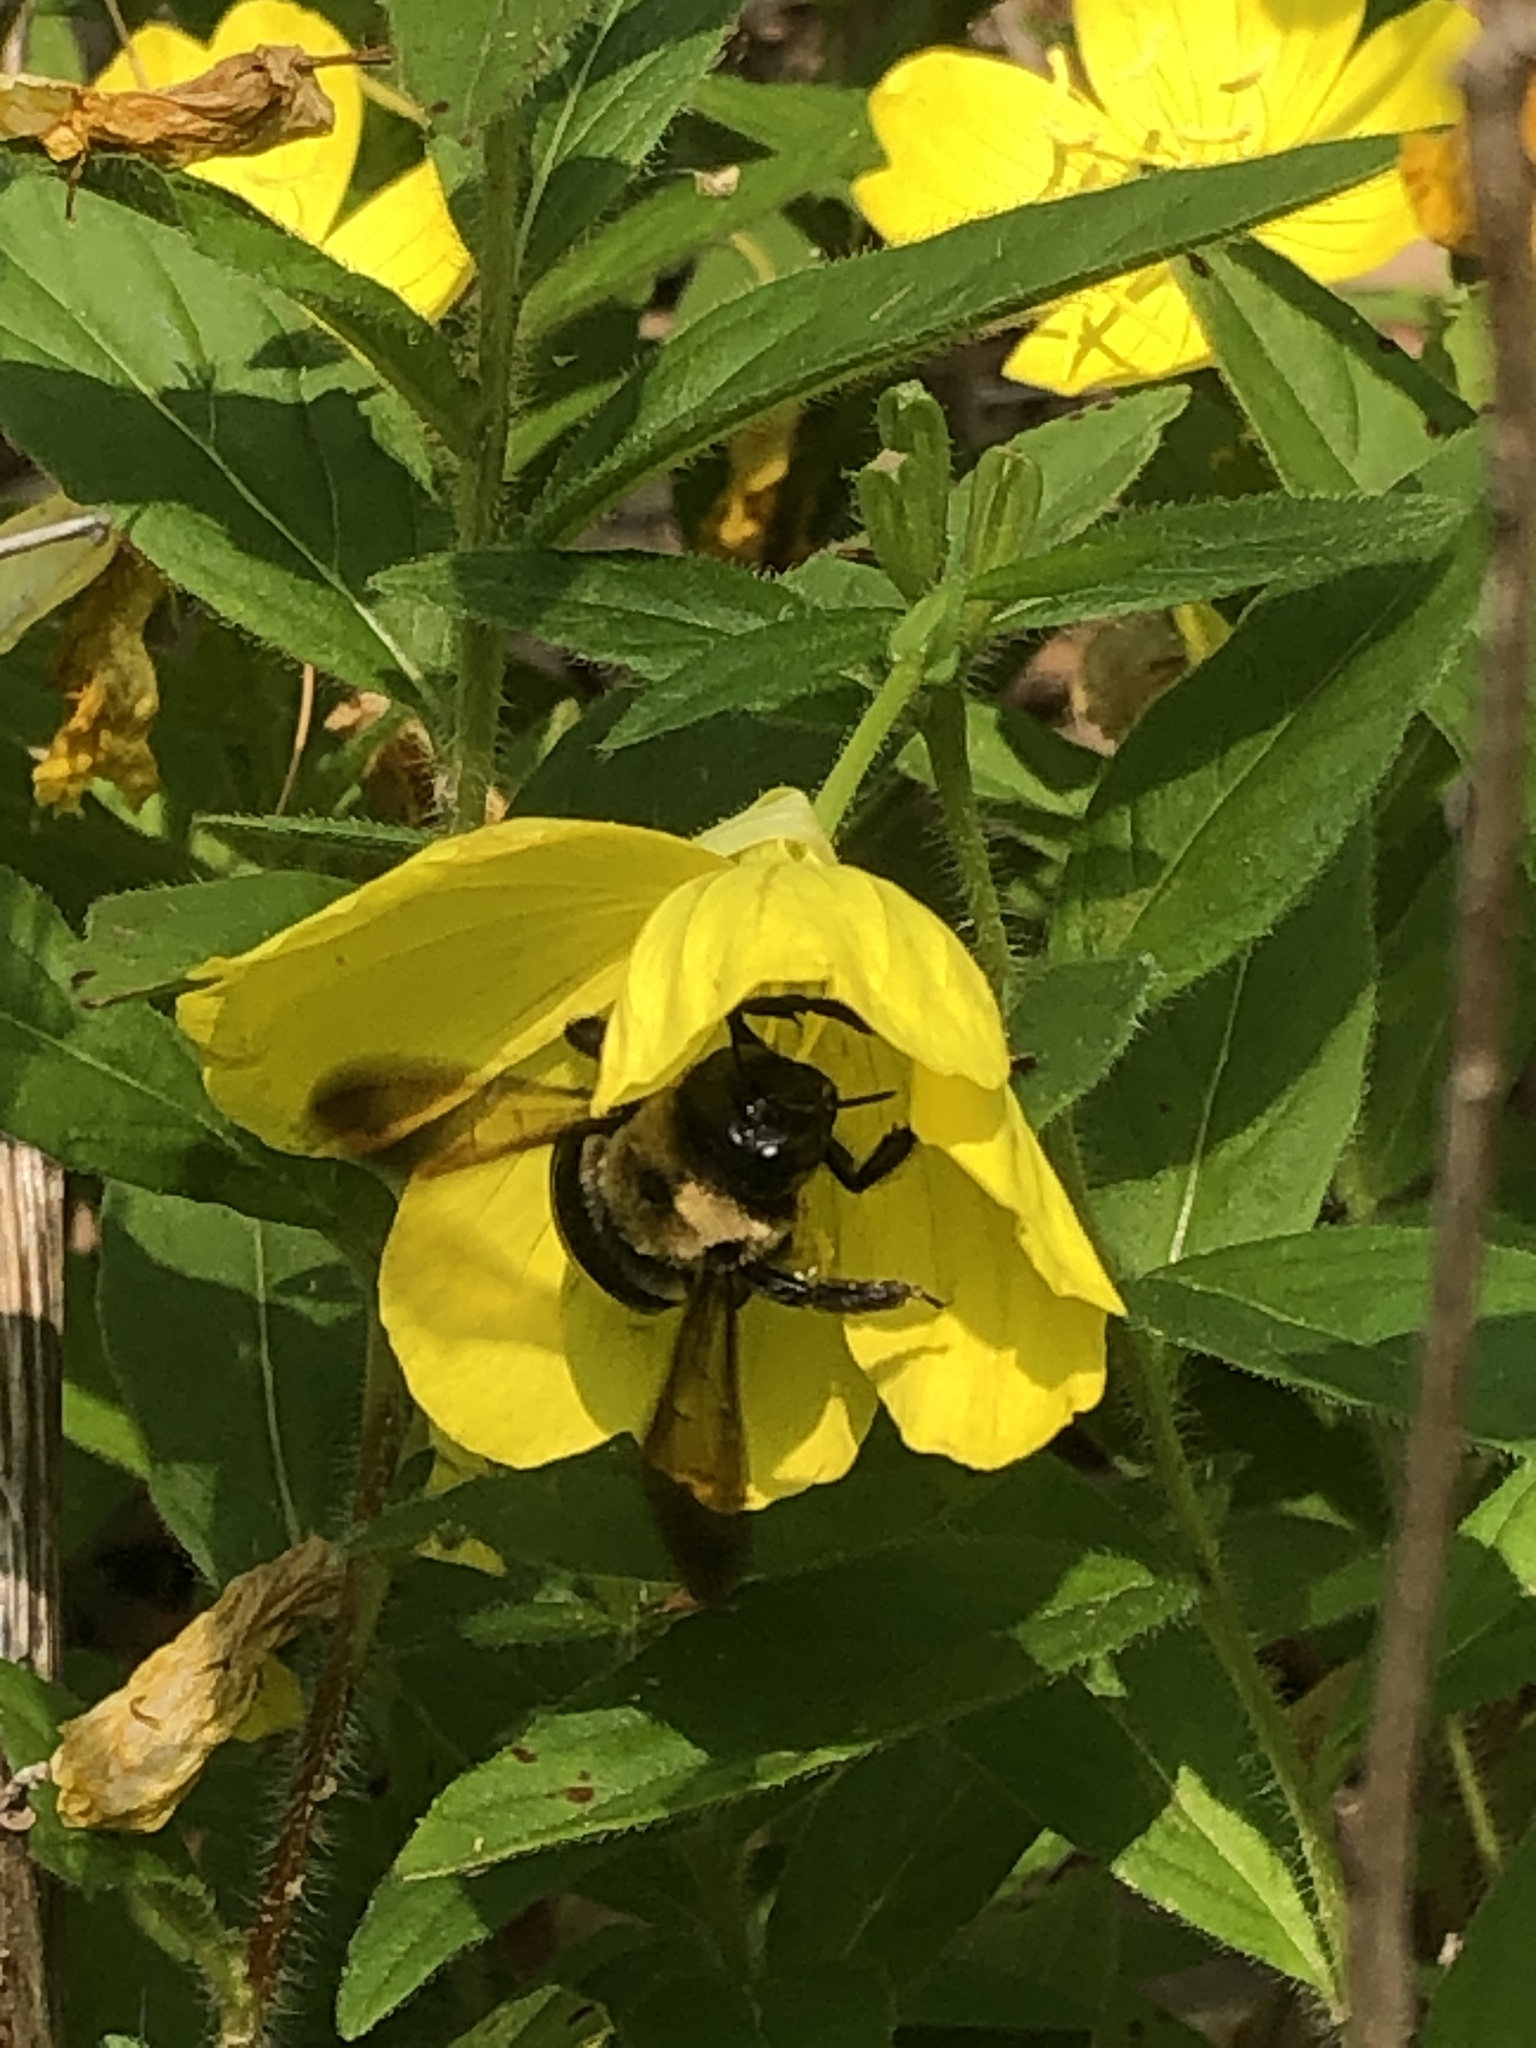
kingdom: Animalia
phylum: Arthropoda
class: Insecta
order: Hymenoptera
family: Apidae
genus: Xylocopa
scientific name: Xylocopa virginica
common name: Carpenter bee
